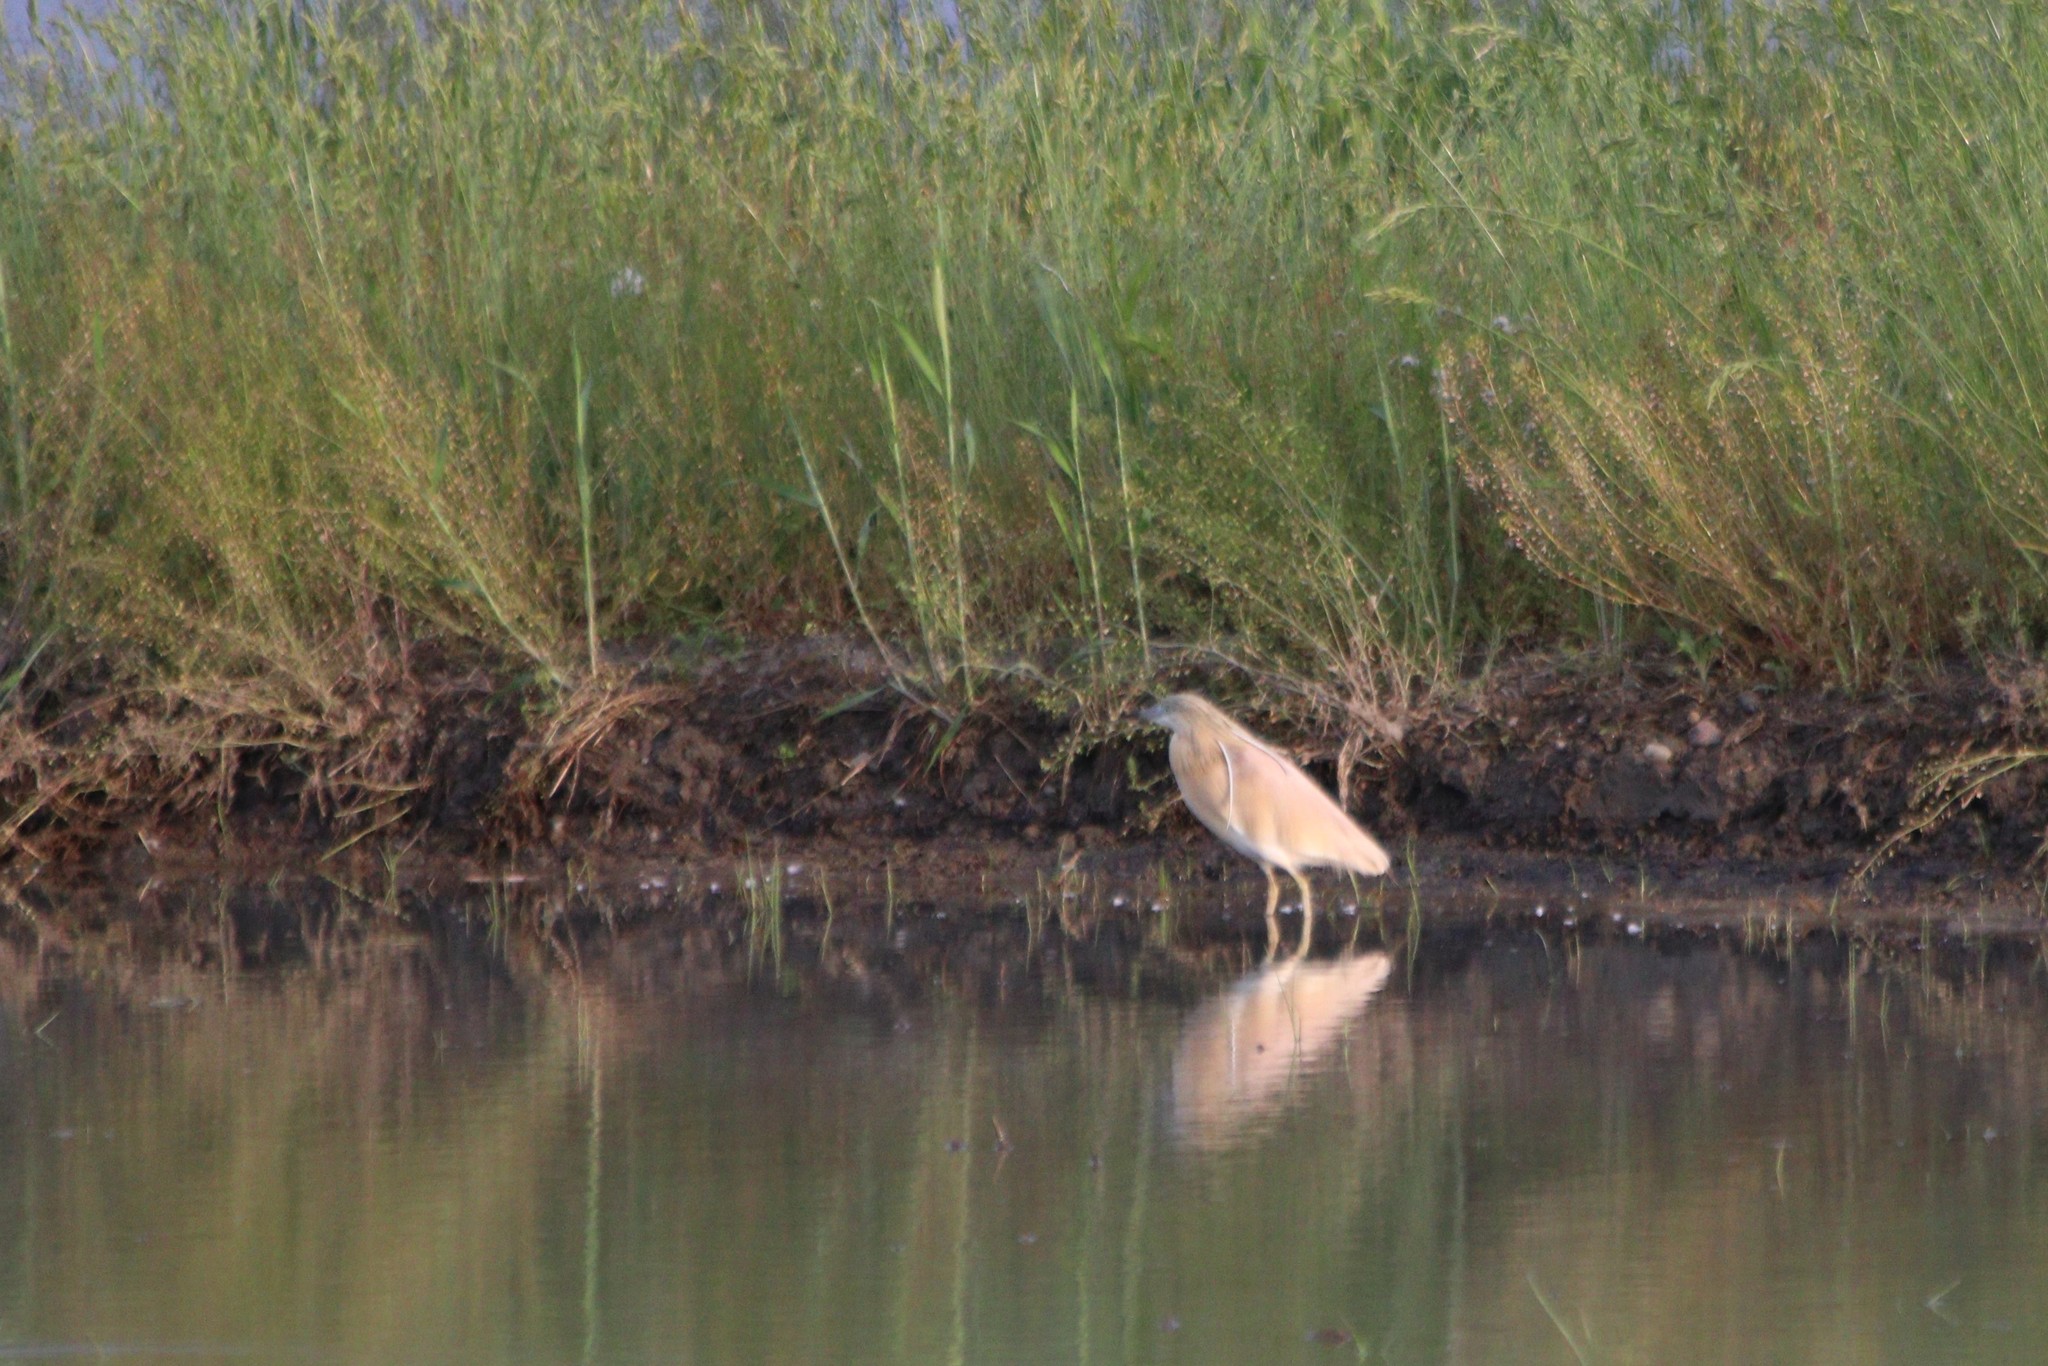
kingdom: Animalia
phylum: Chordata
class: Aves
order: Pelecaniformes
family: Ardeidae
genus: Ardeola
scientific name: Ardeola ralloides
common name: Squacco heron
